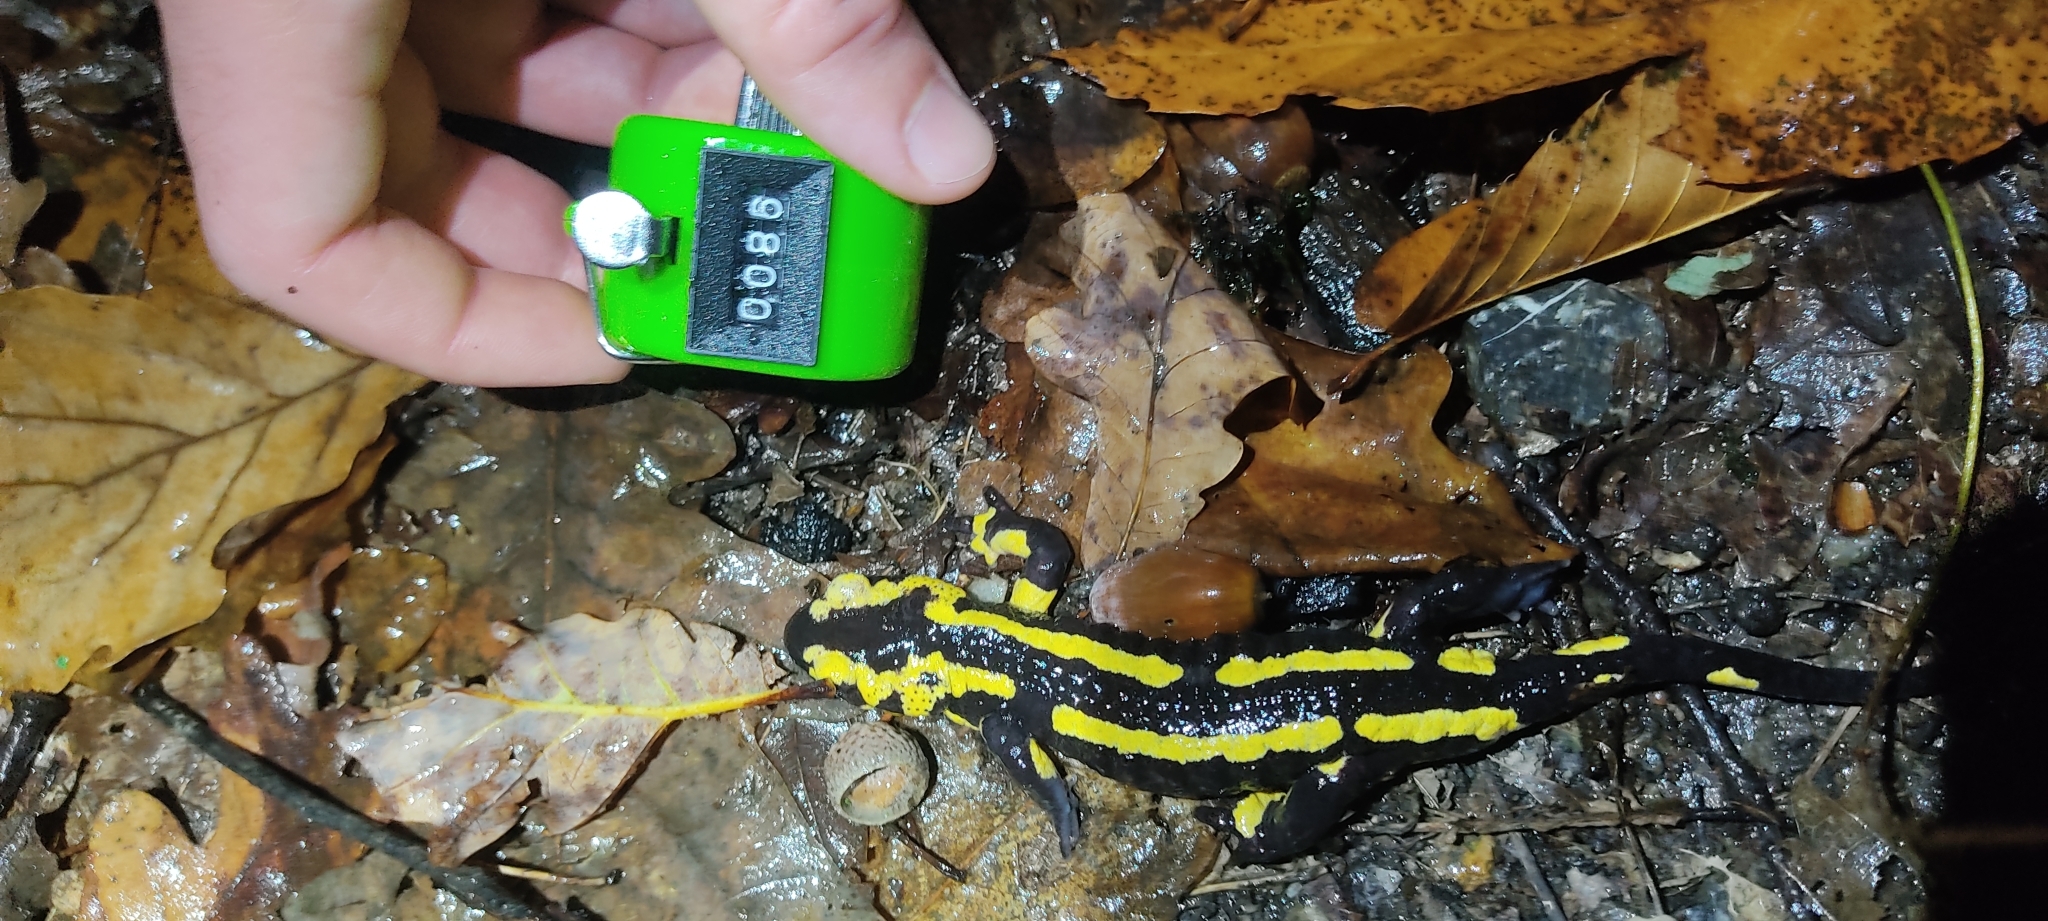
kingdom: Animalia
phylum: Chordata
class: Amphibia
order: Caudata
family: Salamandridae
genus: Salamandra
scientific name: Salamandra salamandra
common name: Fire salamander
